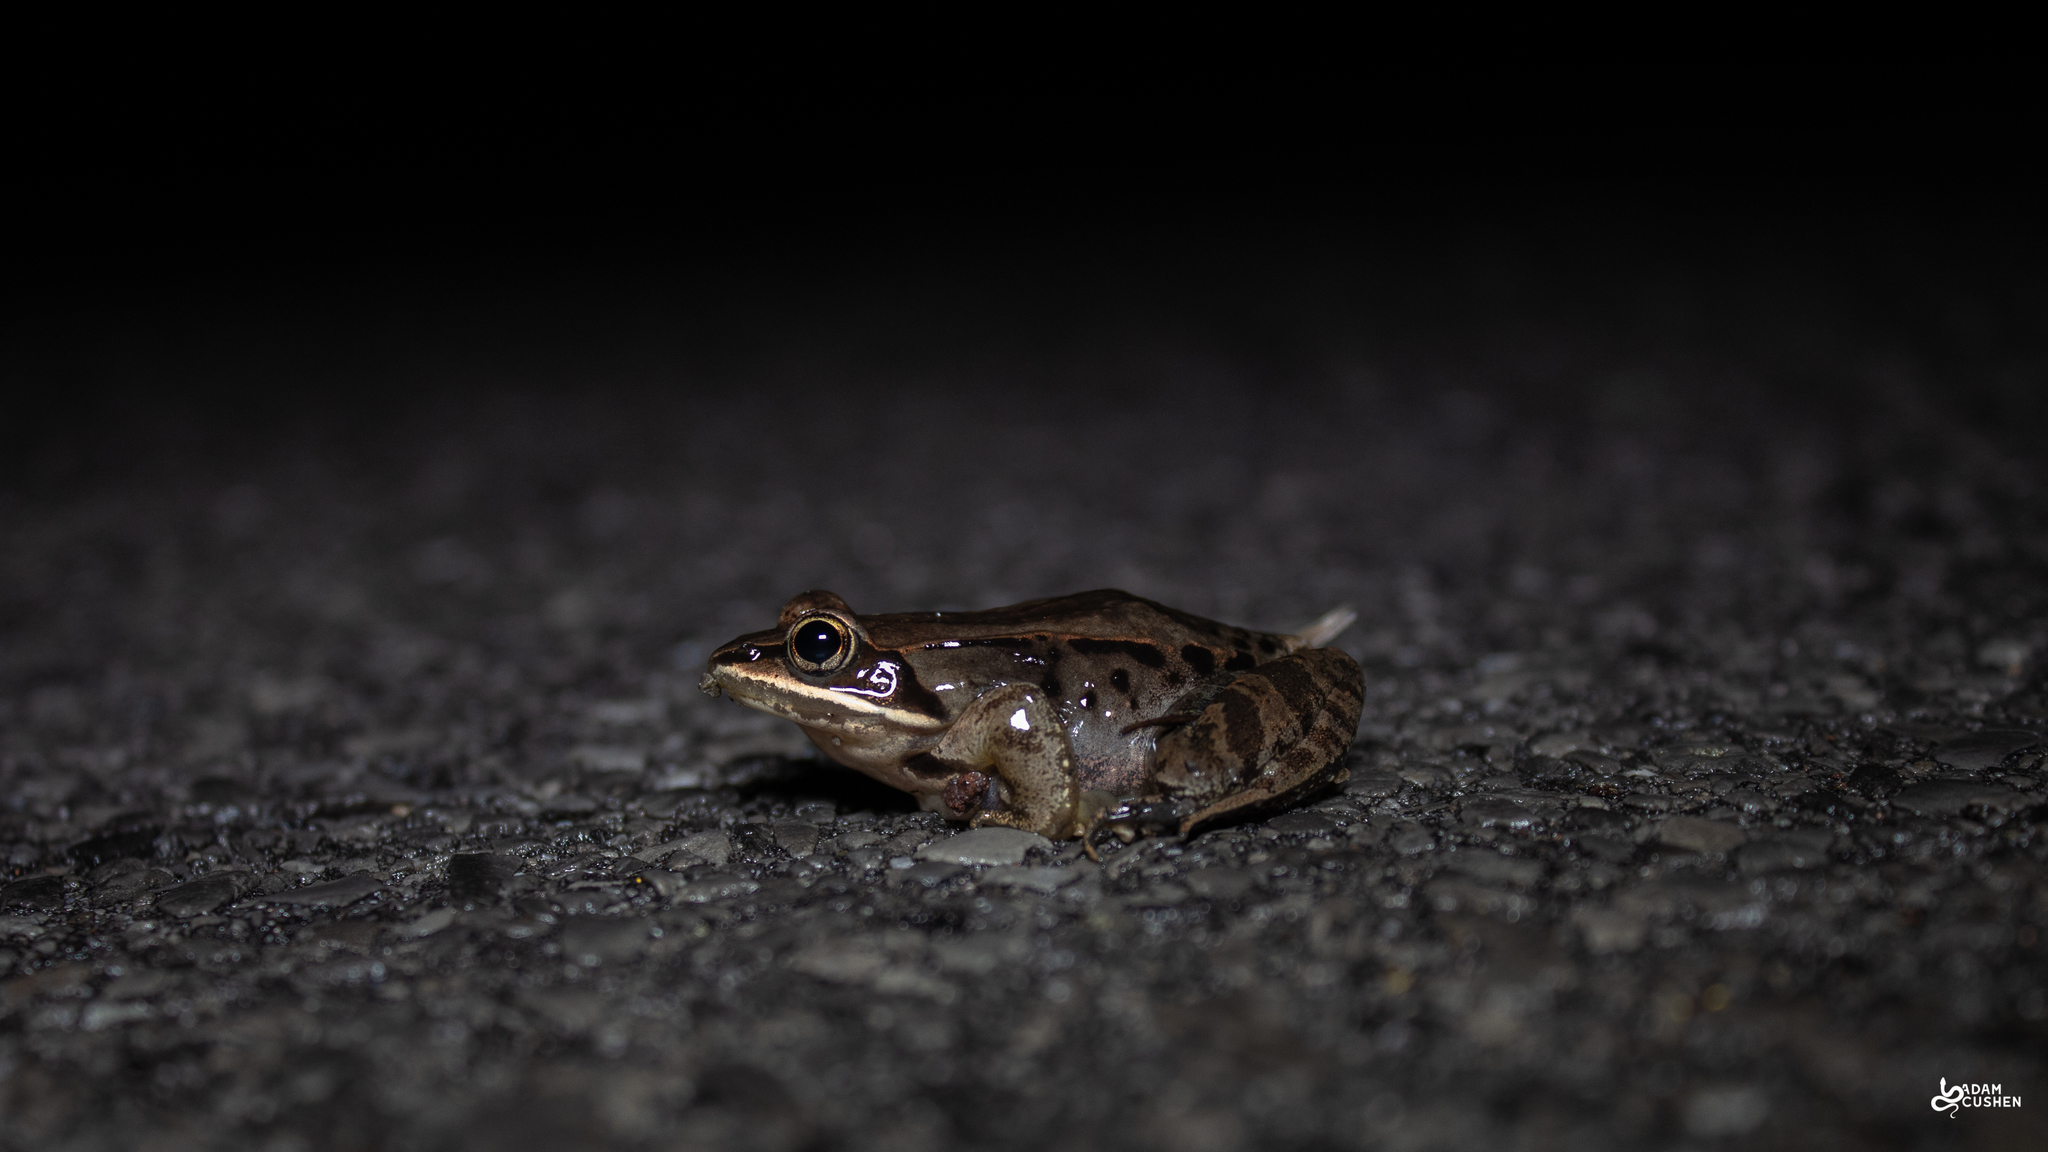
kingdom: Animalia
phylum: Chordata
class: Amphibia
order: Anura
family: Ranidae
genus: Lithobates
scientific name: Lithobates sylvaticus
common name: Wood frog
